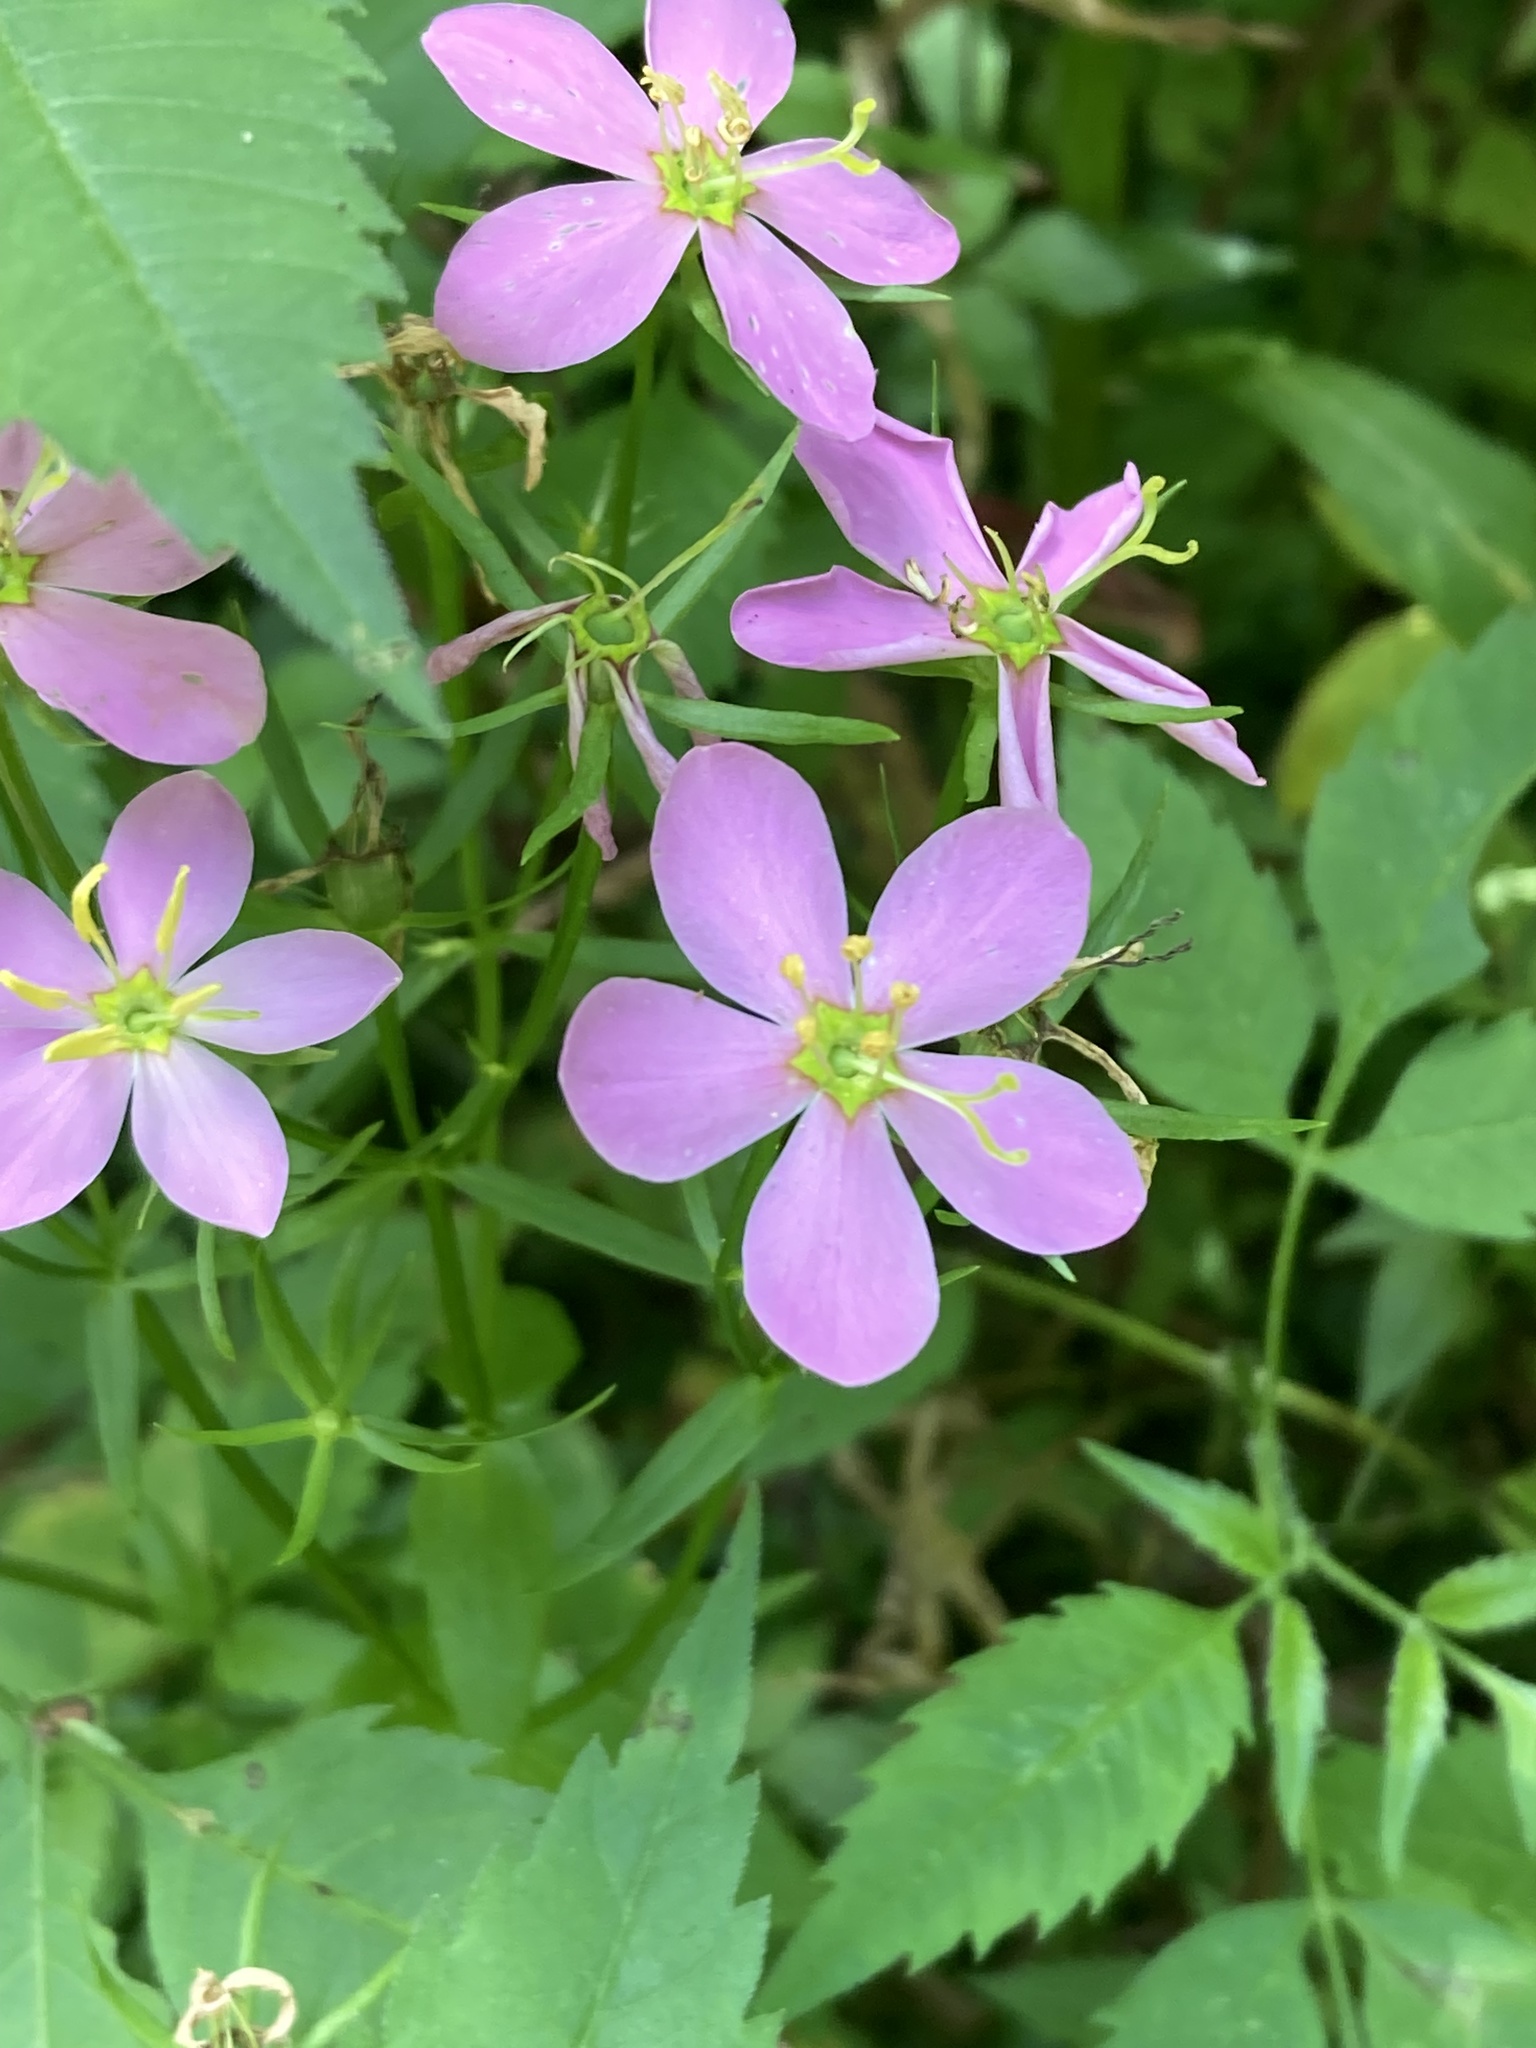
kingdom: Plantae
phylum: Tracheophyta
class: Magnoliopsida
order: Gentianales
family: Gentianaceae
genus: Sabatia
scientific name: Sabatia angularis
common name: Rose-pink
